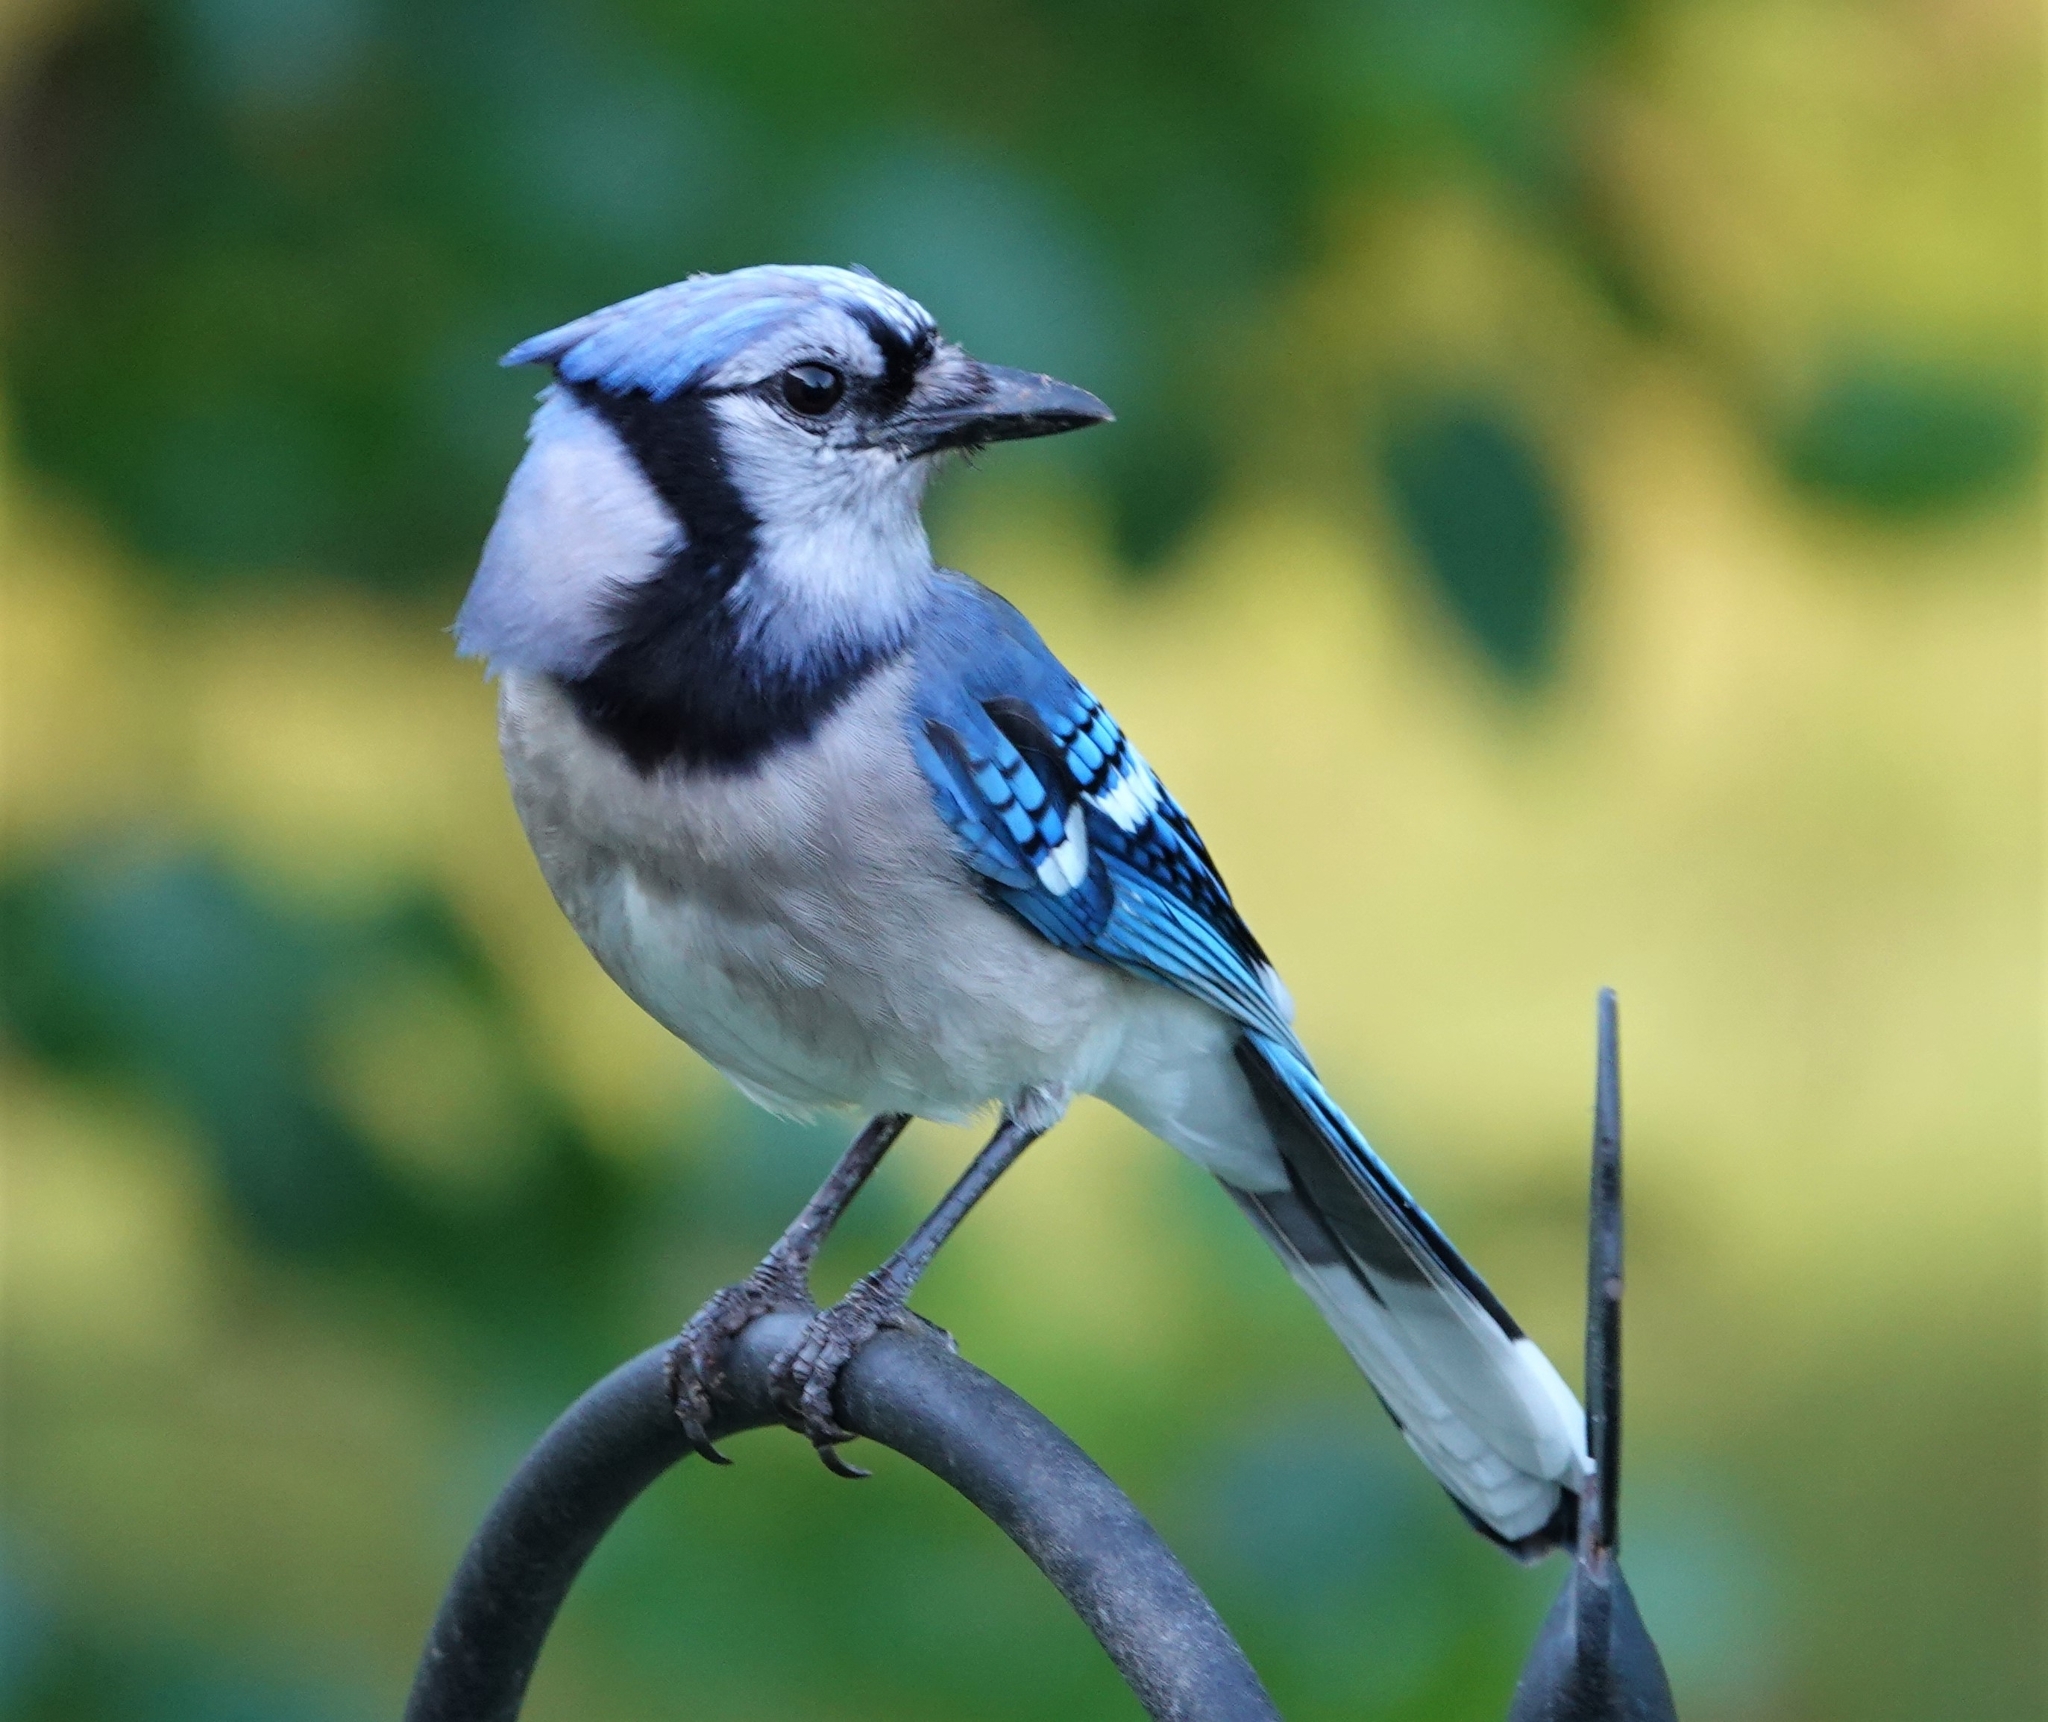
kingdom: Animalia
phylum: Chordata
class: Aves
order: Passeriformes
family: Corvidae
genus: Cyanocitta
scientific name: Cyanocitta cristata
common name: Blue jay
